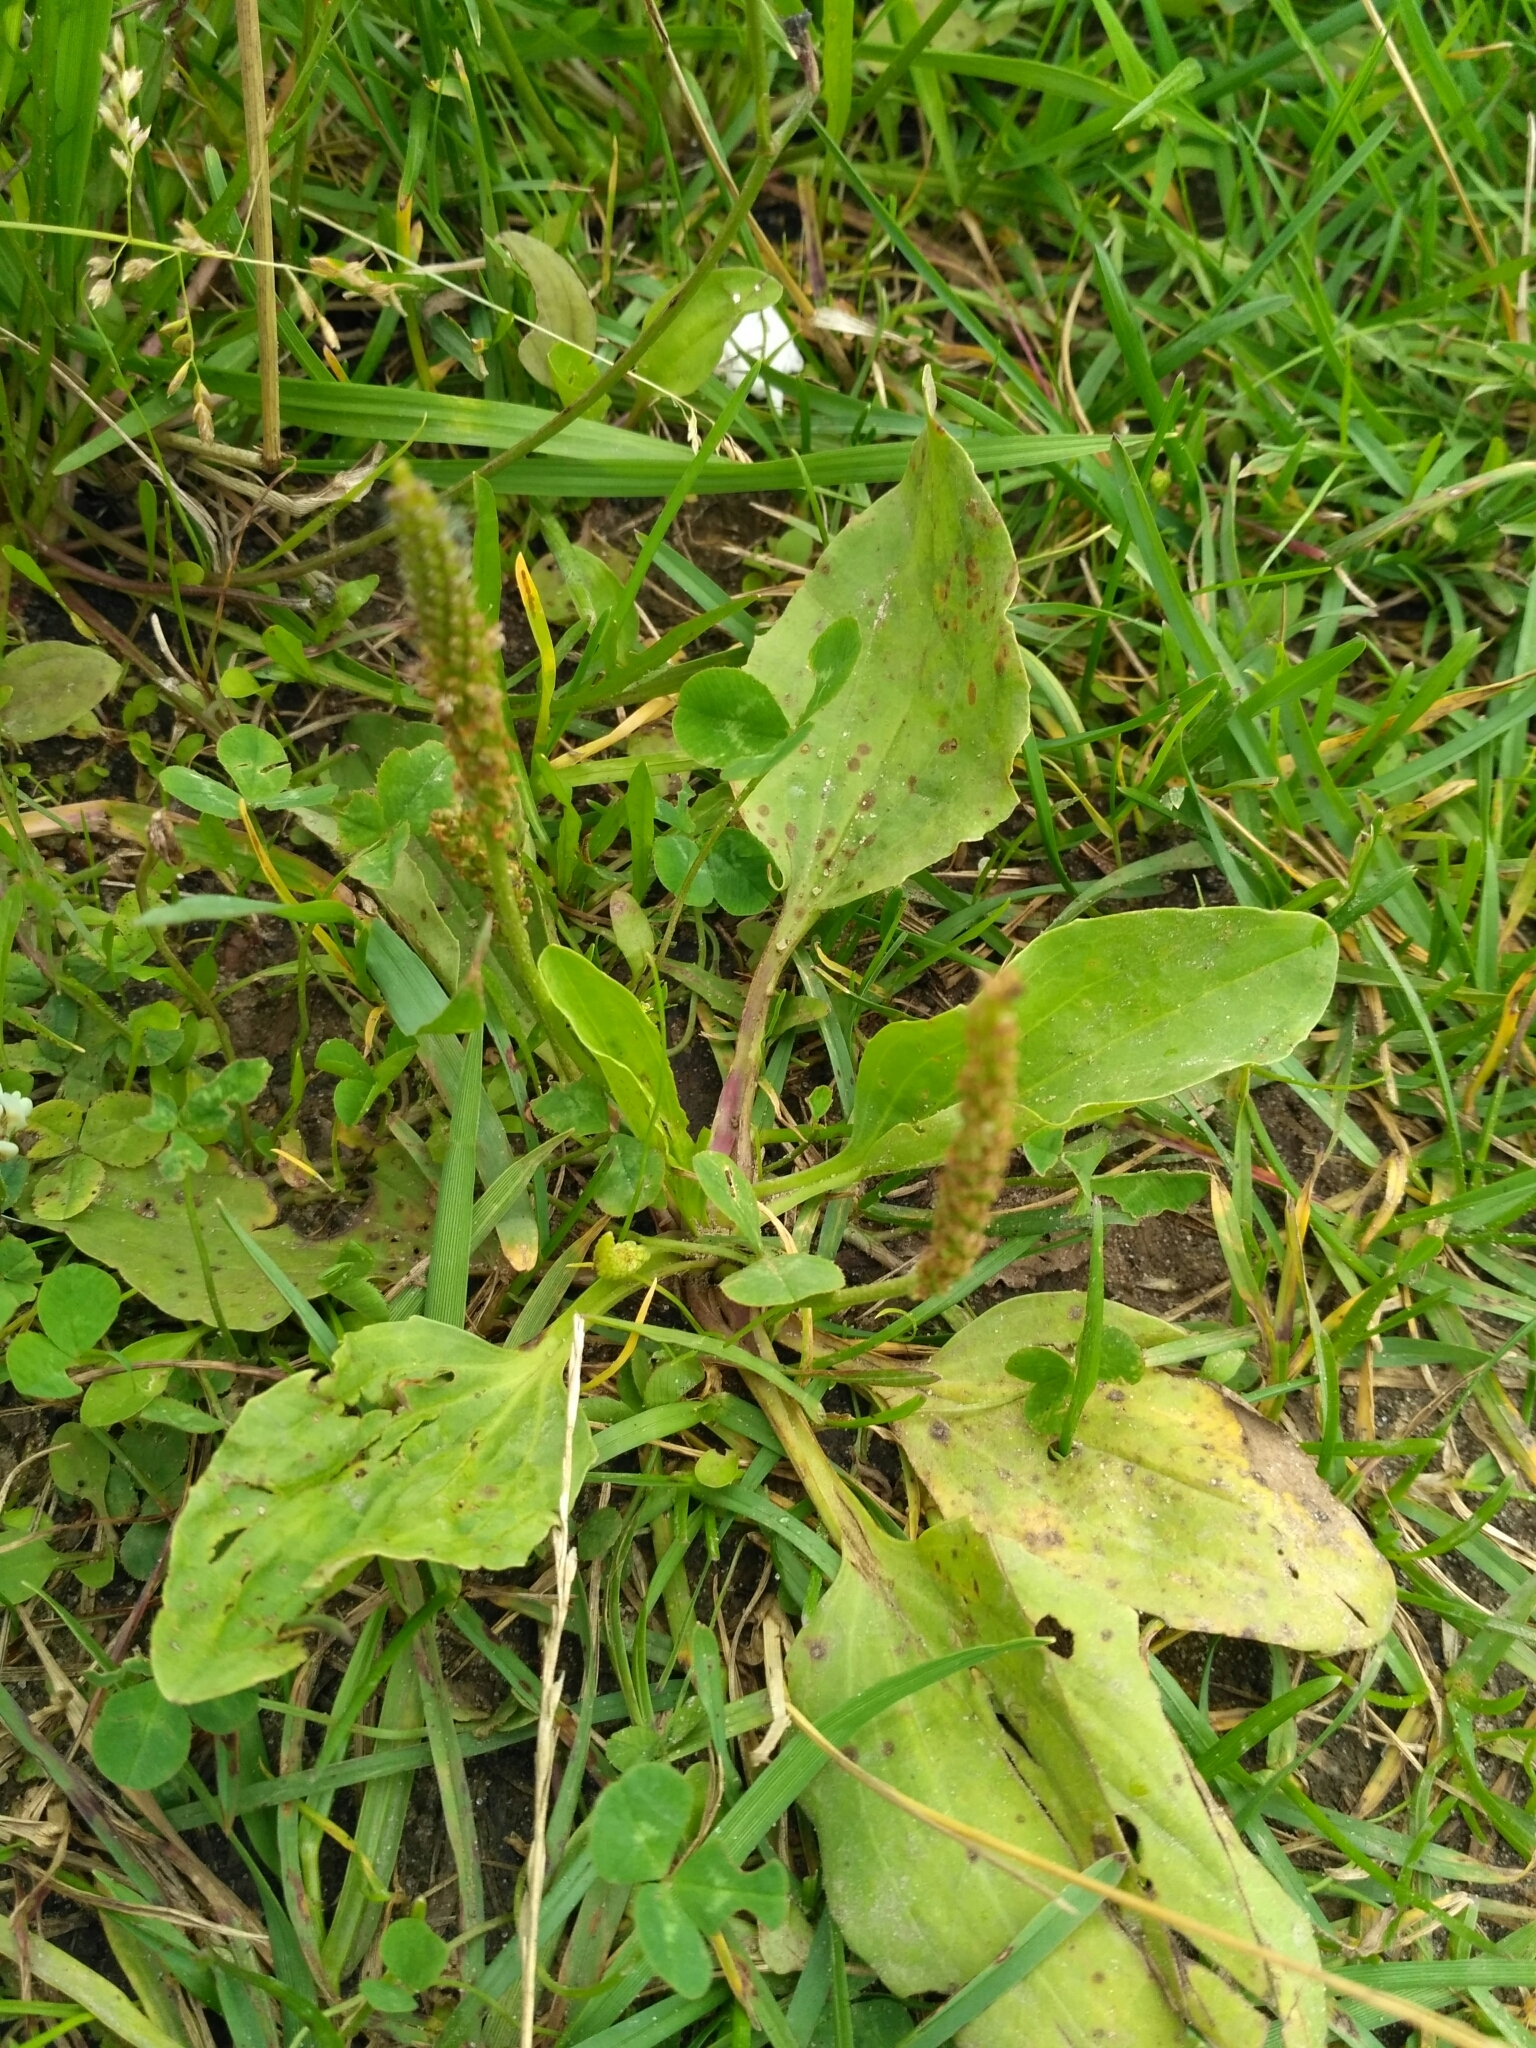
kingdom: Plantae
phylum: Tracheophyta
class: Magnoliopsida
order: Lamiales
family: Plantaginaceae
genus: Plantago
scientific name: Plantago major
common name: Common plantain
